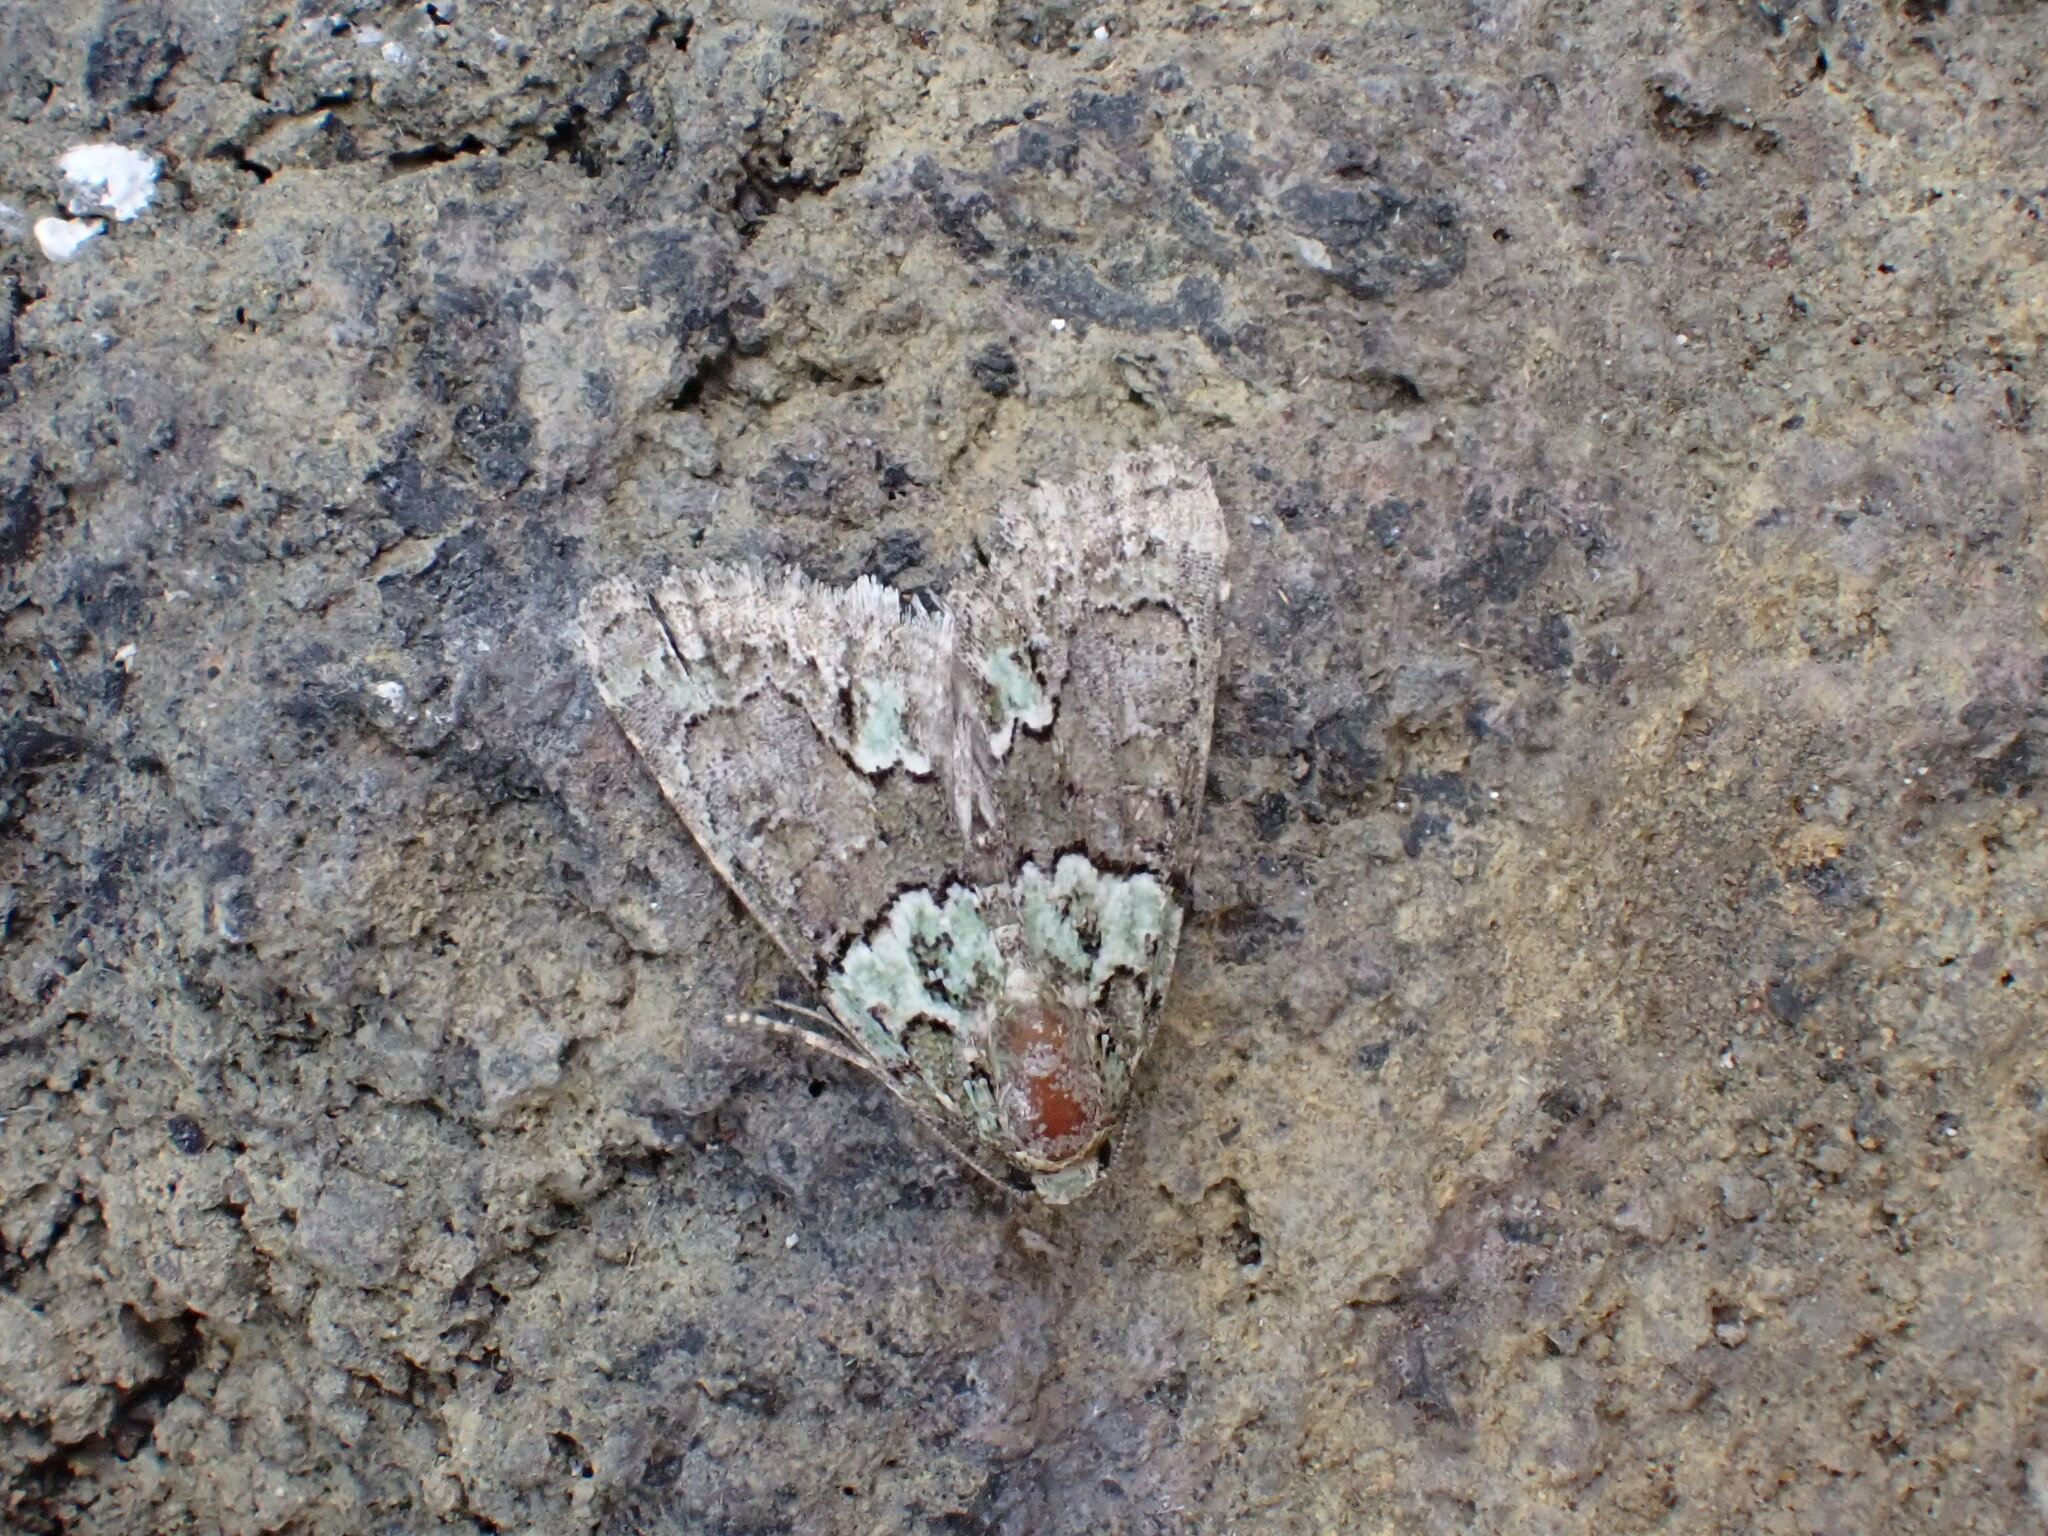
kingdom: Animalia
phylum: Arthropoda
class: Insecta
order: Lepidoptera
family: Noctuidae
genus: Cryphia
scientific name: Cryphia tenerifensis
